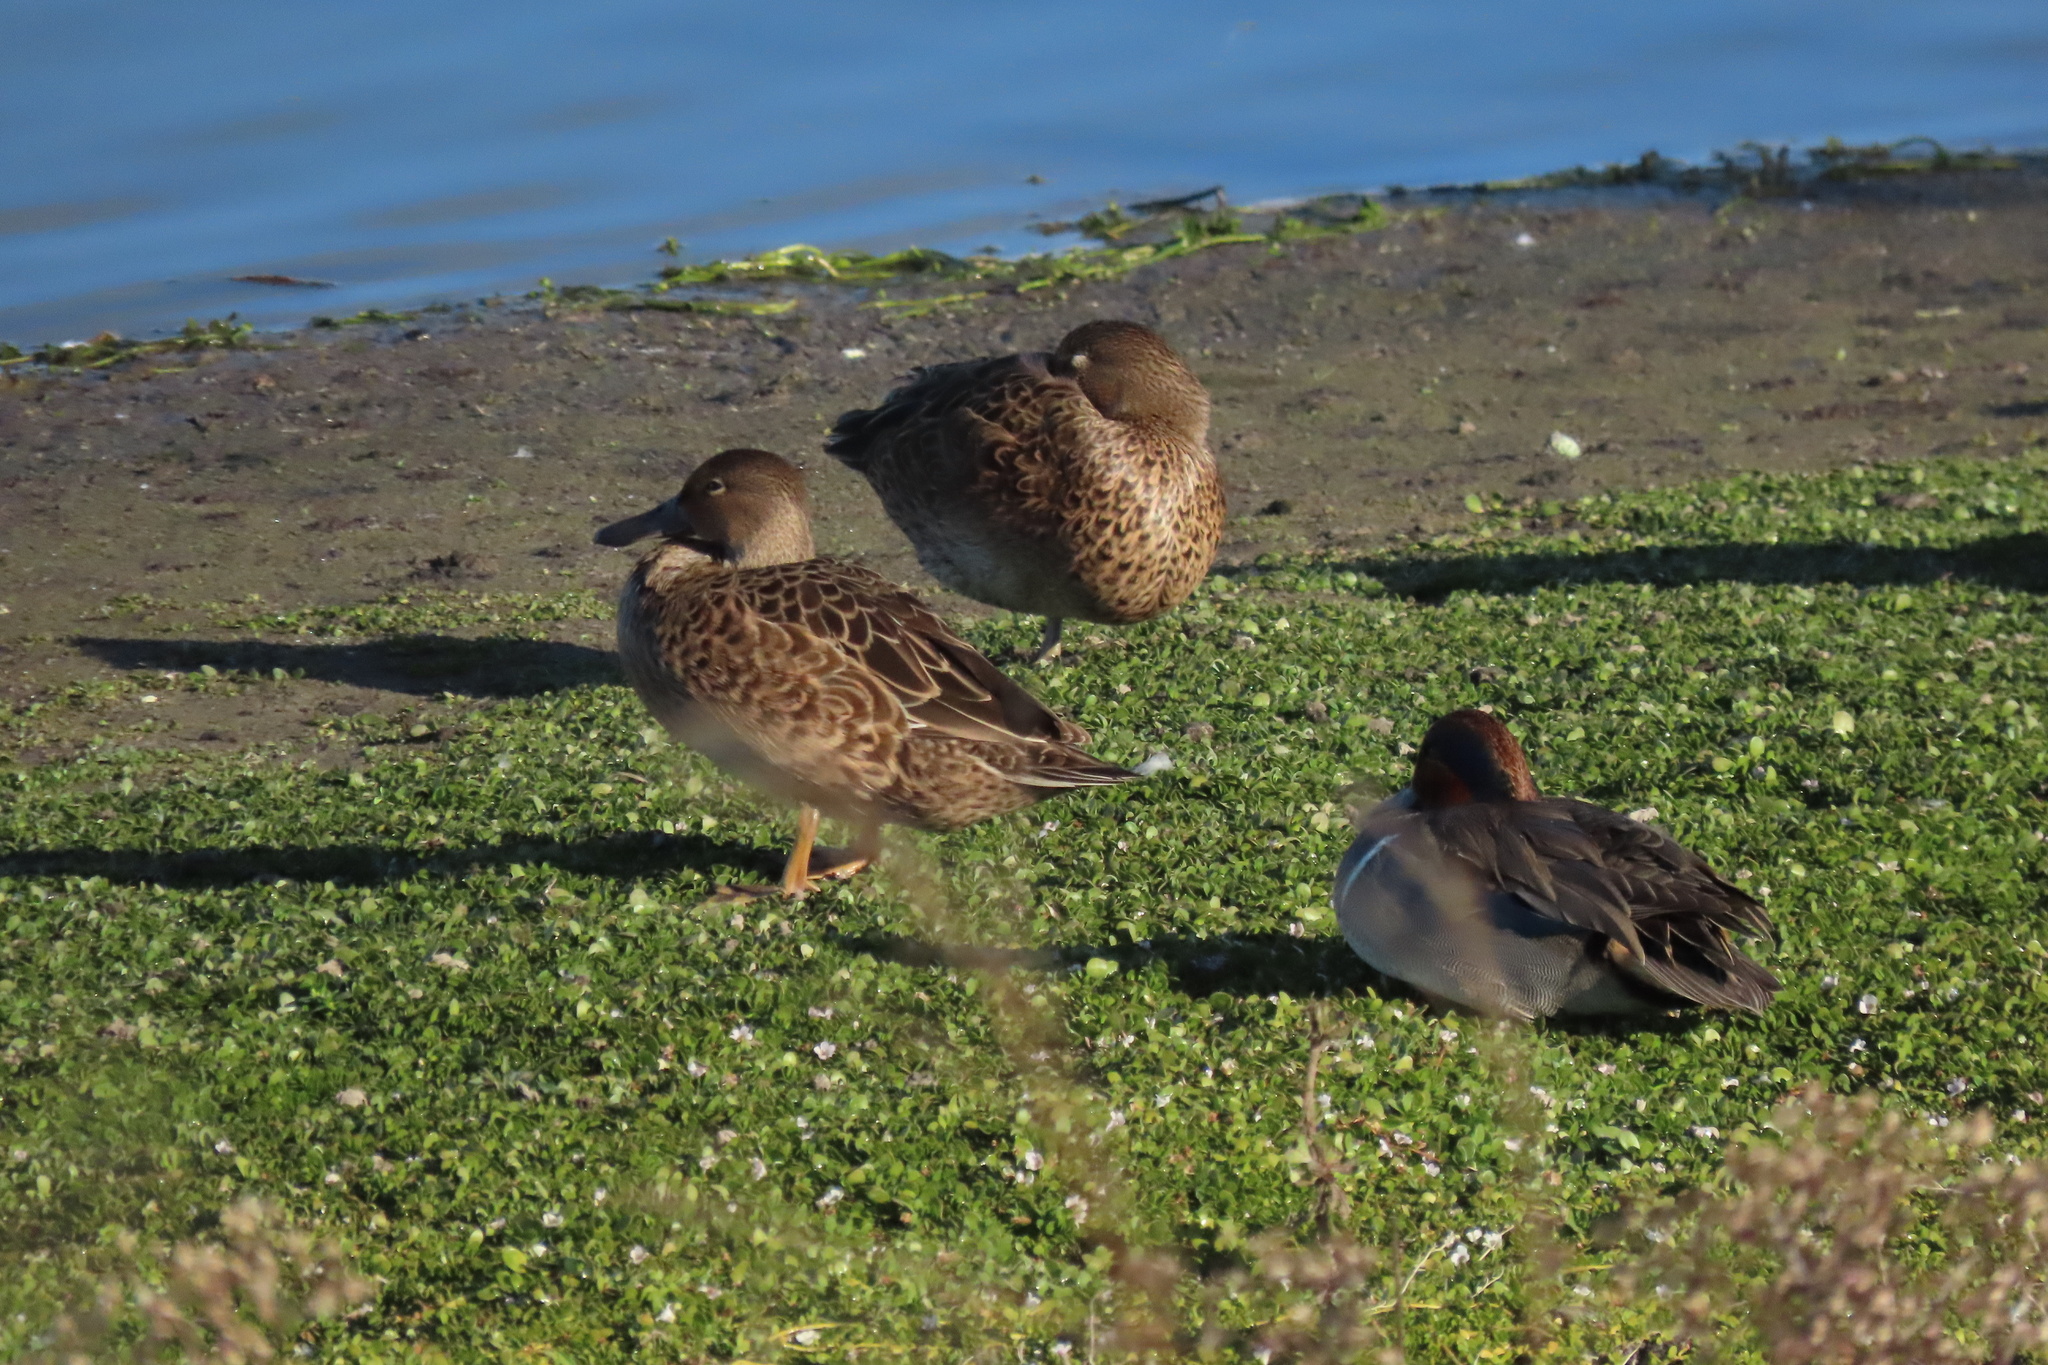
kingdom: Animalia
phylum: Chordata
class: Aves
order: Anseriformes
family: Anatidae
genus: Spatula
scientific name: Spatula cyanoptera
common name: Cinnamon teal
